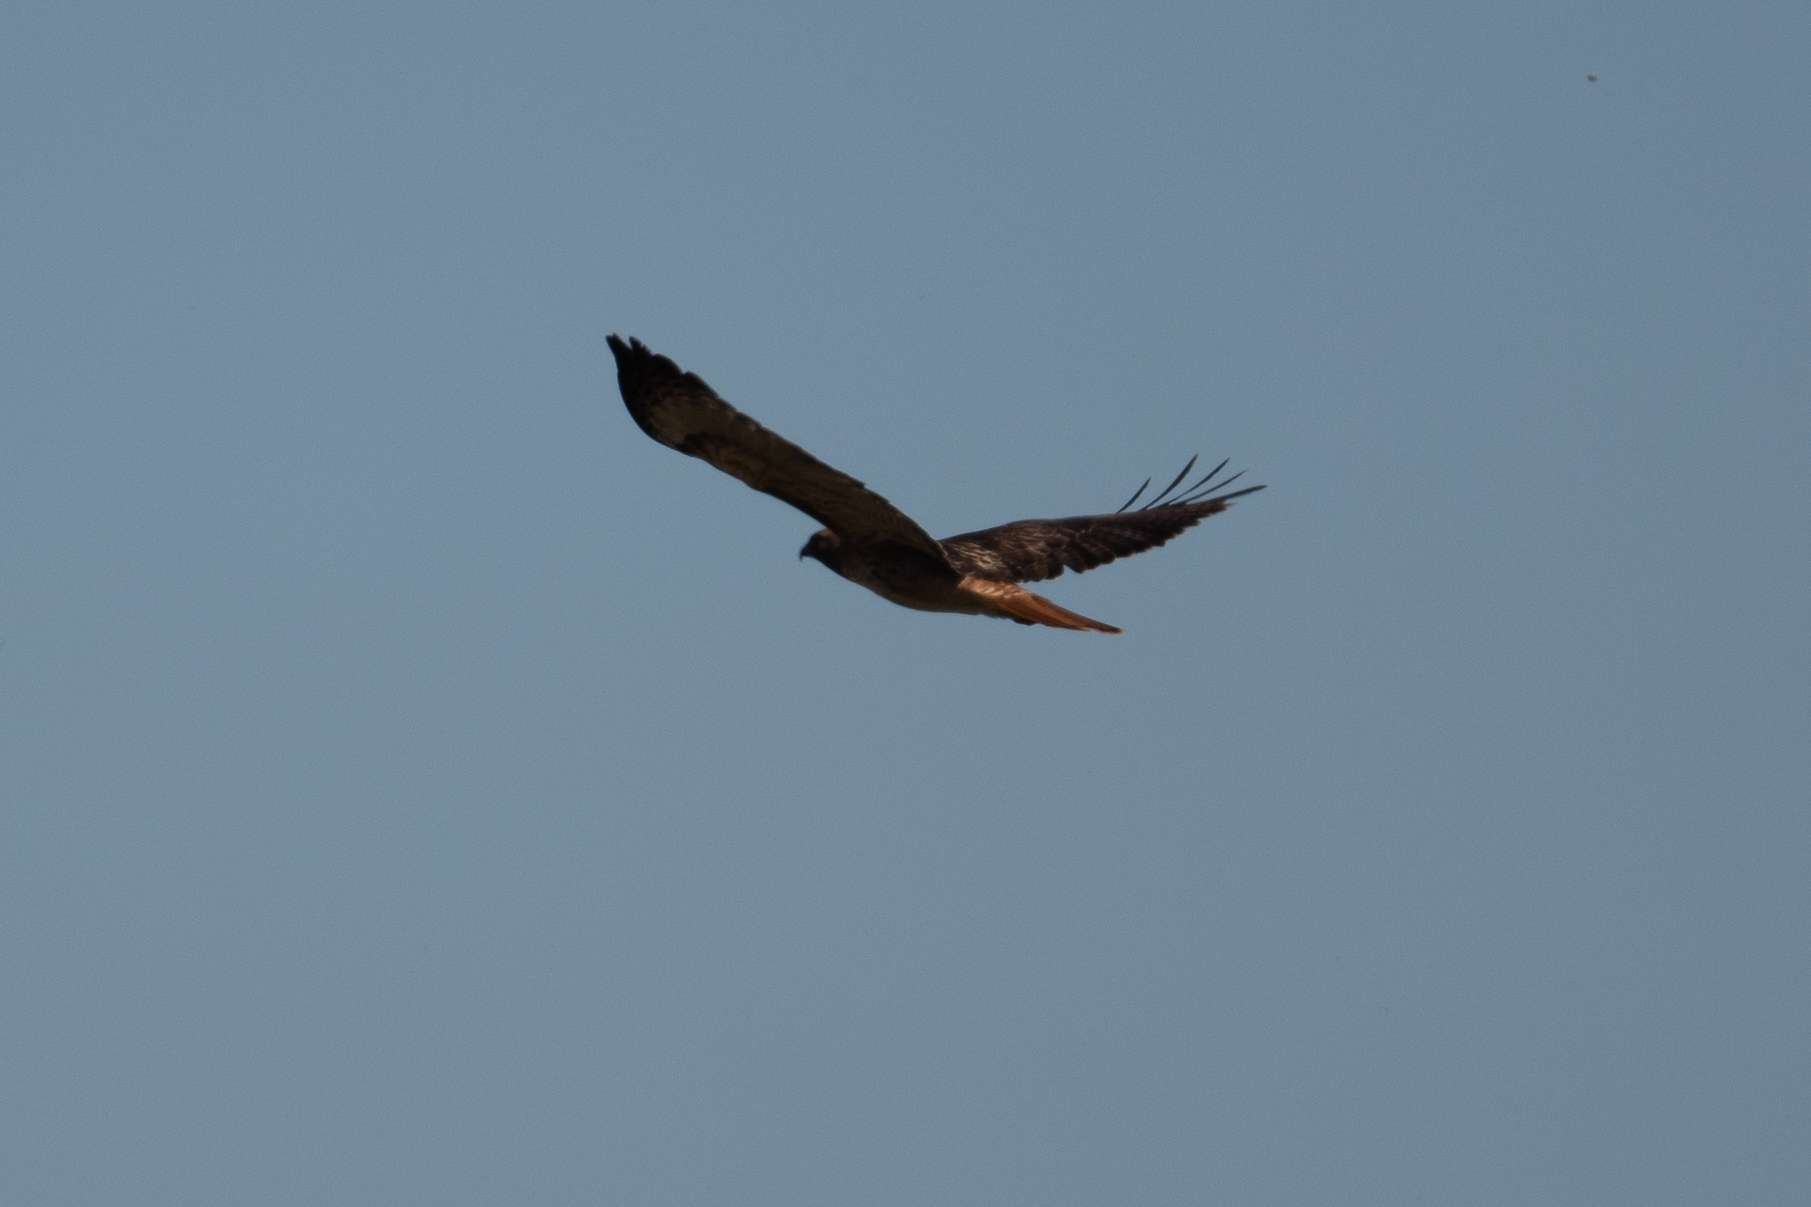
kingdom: Animalia
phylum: Chordata
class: Aves
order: Accipitriformes
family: Accipitridae
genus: Buteo
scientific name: Buteo jamaicensis
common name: Red-tailed hawk
